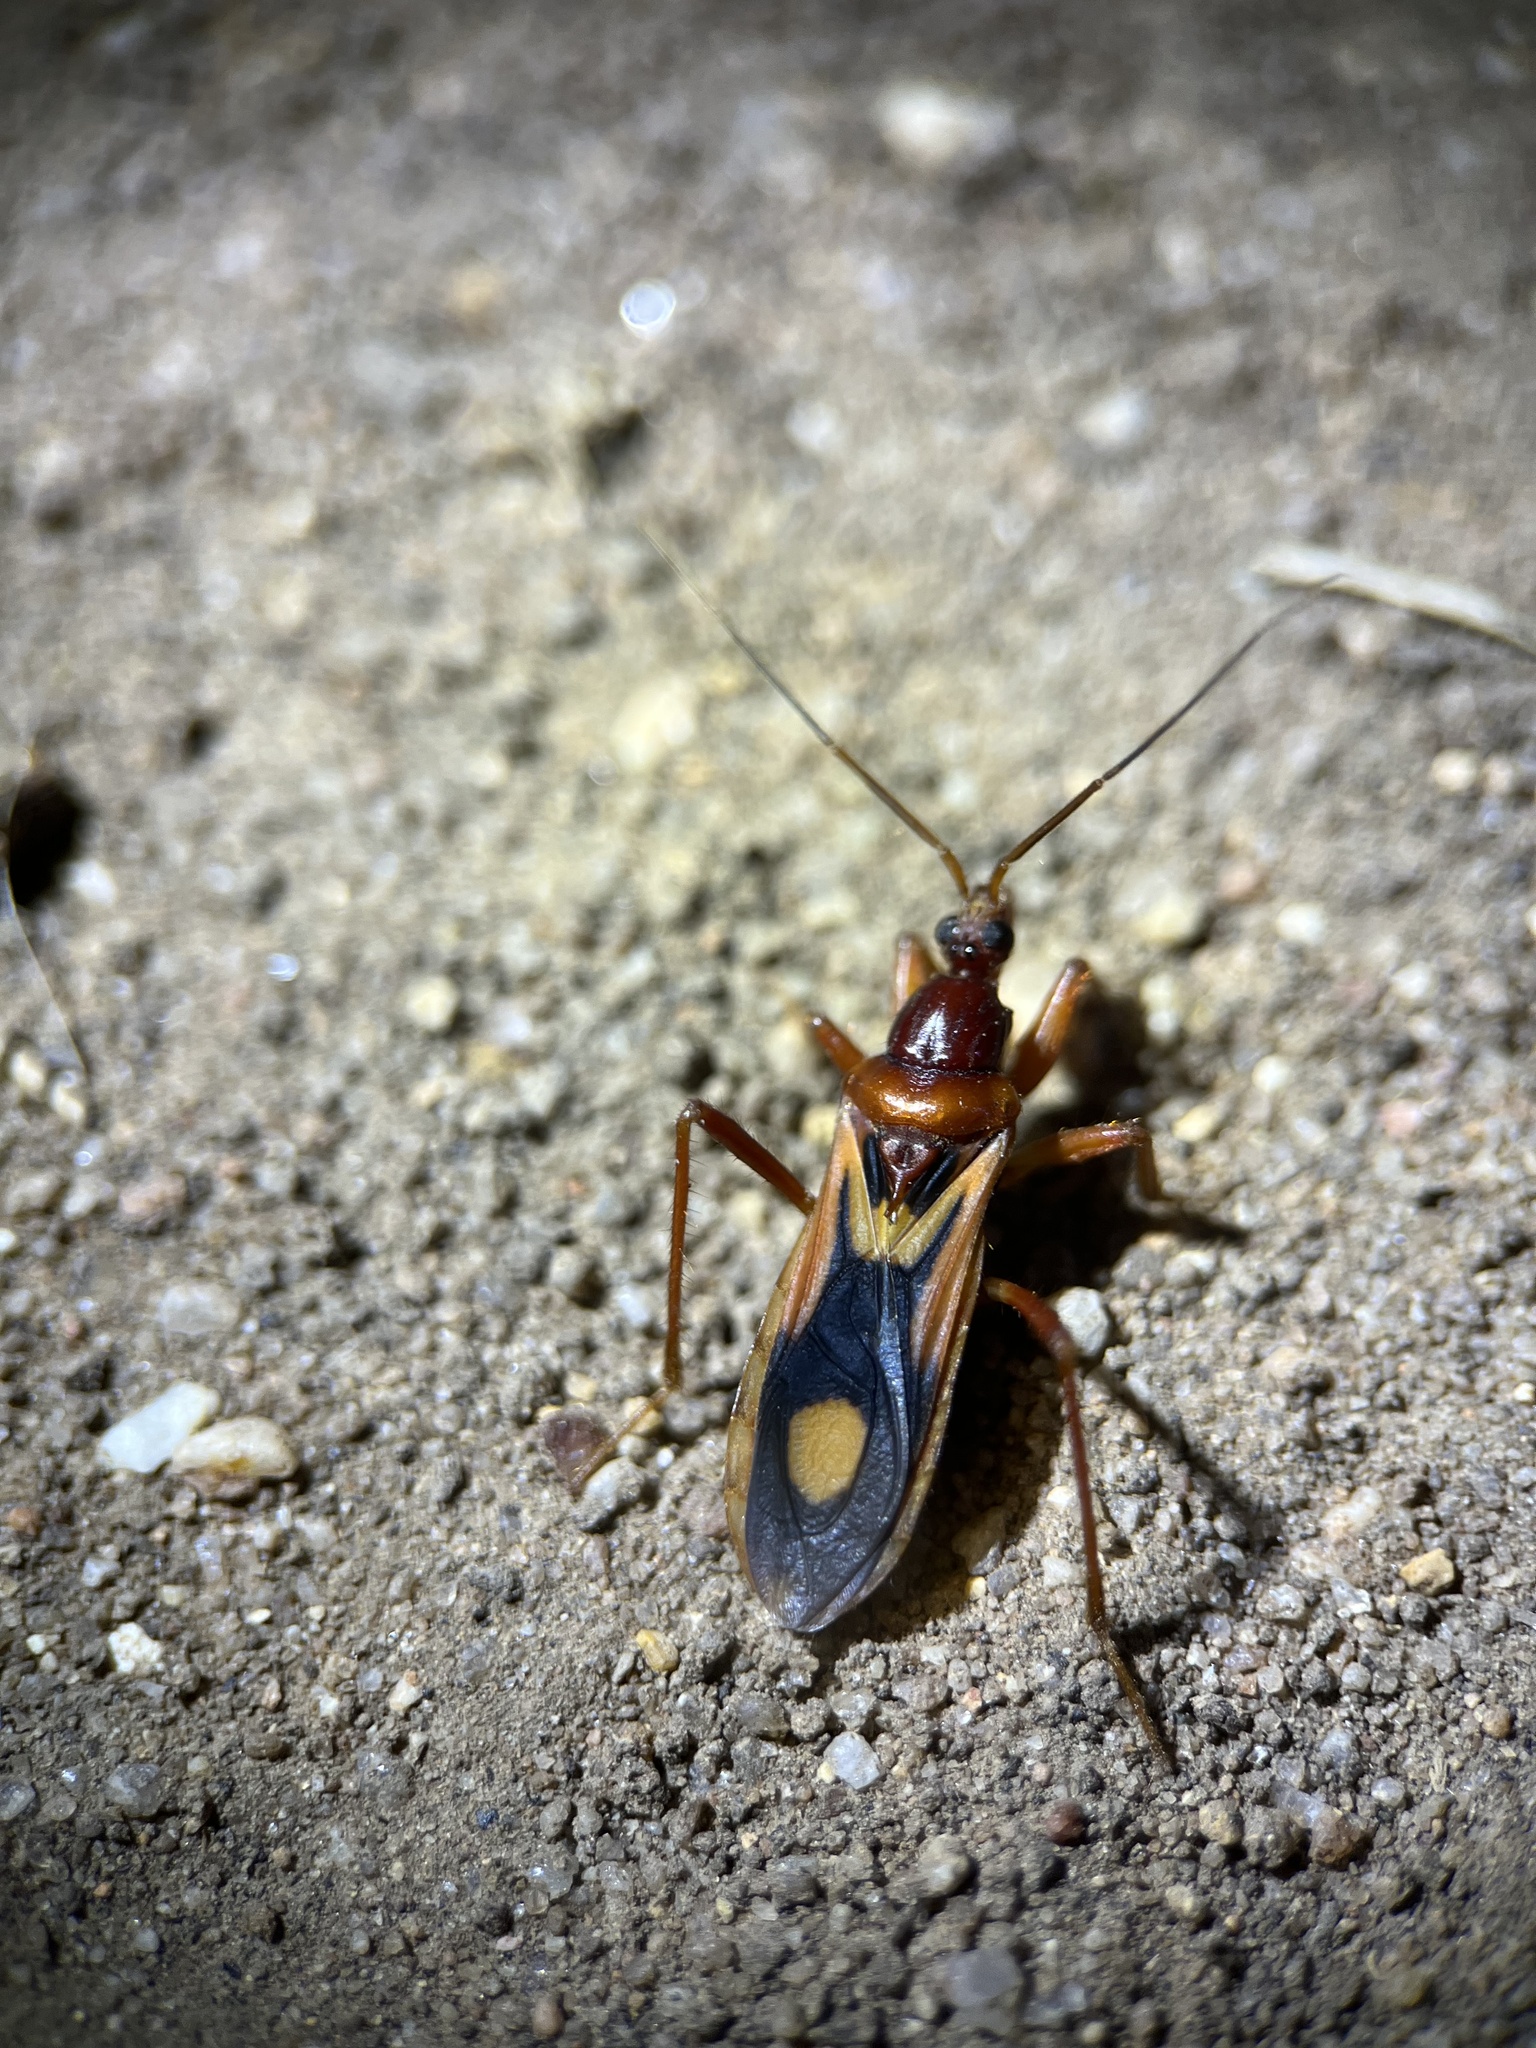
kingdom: Animalia
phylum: Arthropoda
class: Insecta
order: Hemiptera
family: Reduviidae
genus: Rasahus
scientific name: Rasahus thoracicus
